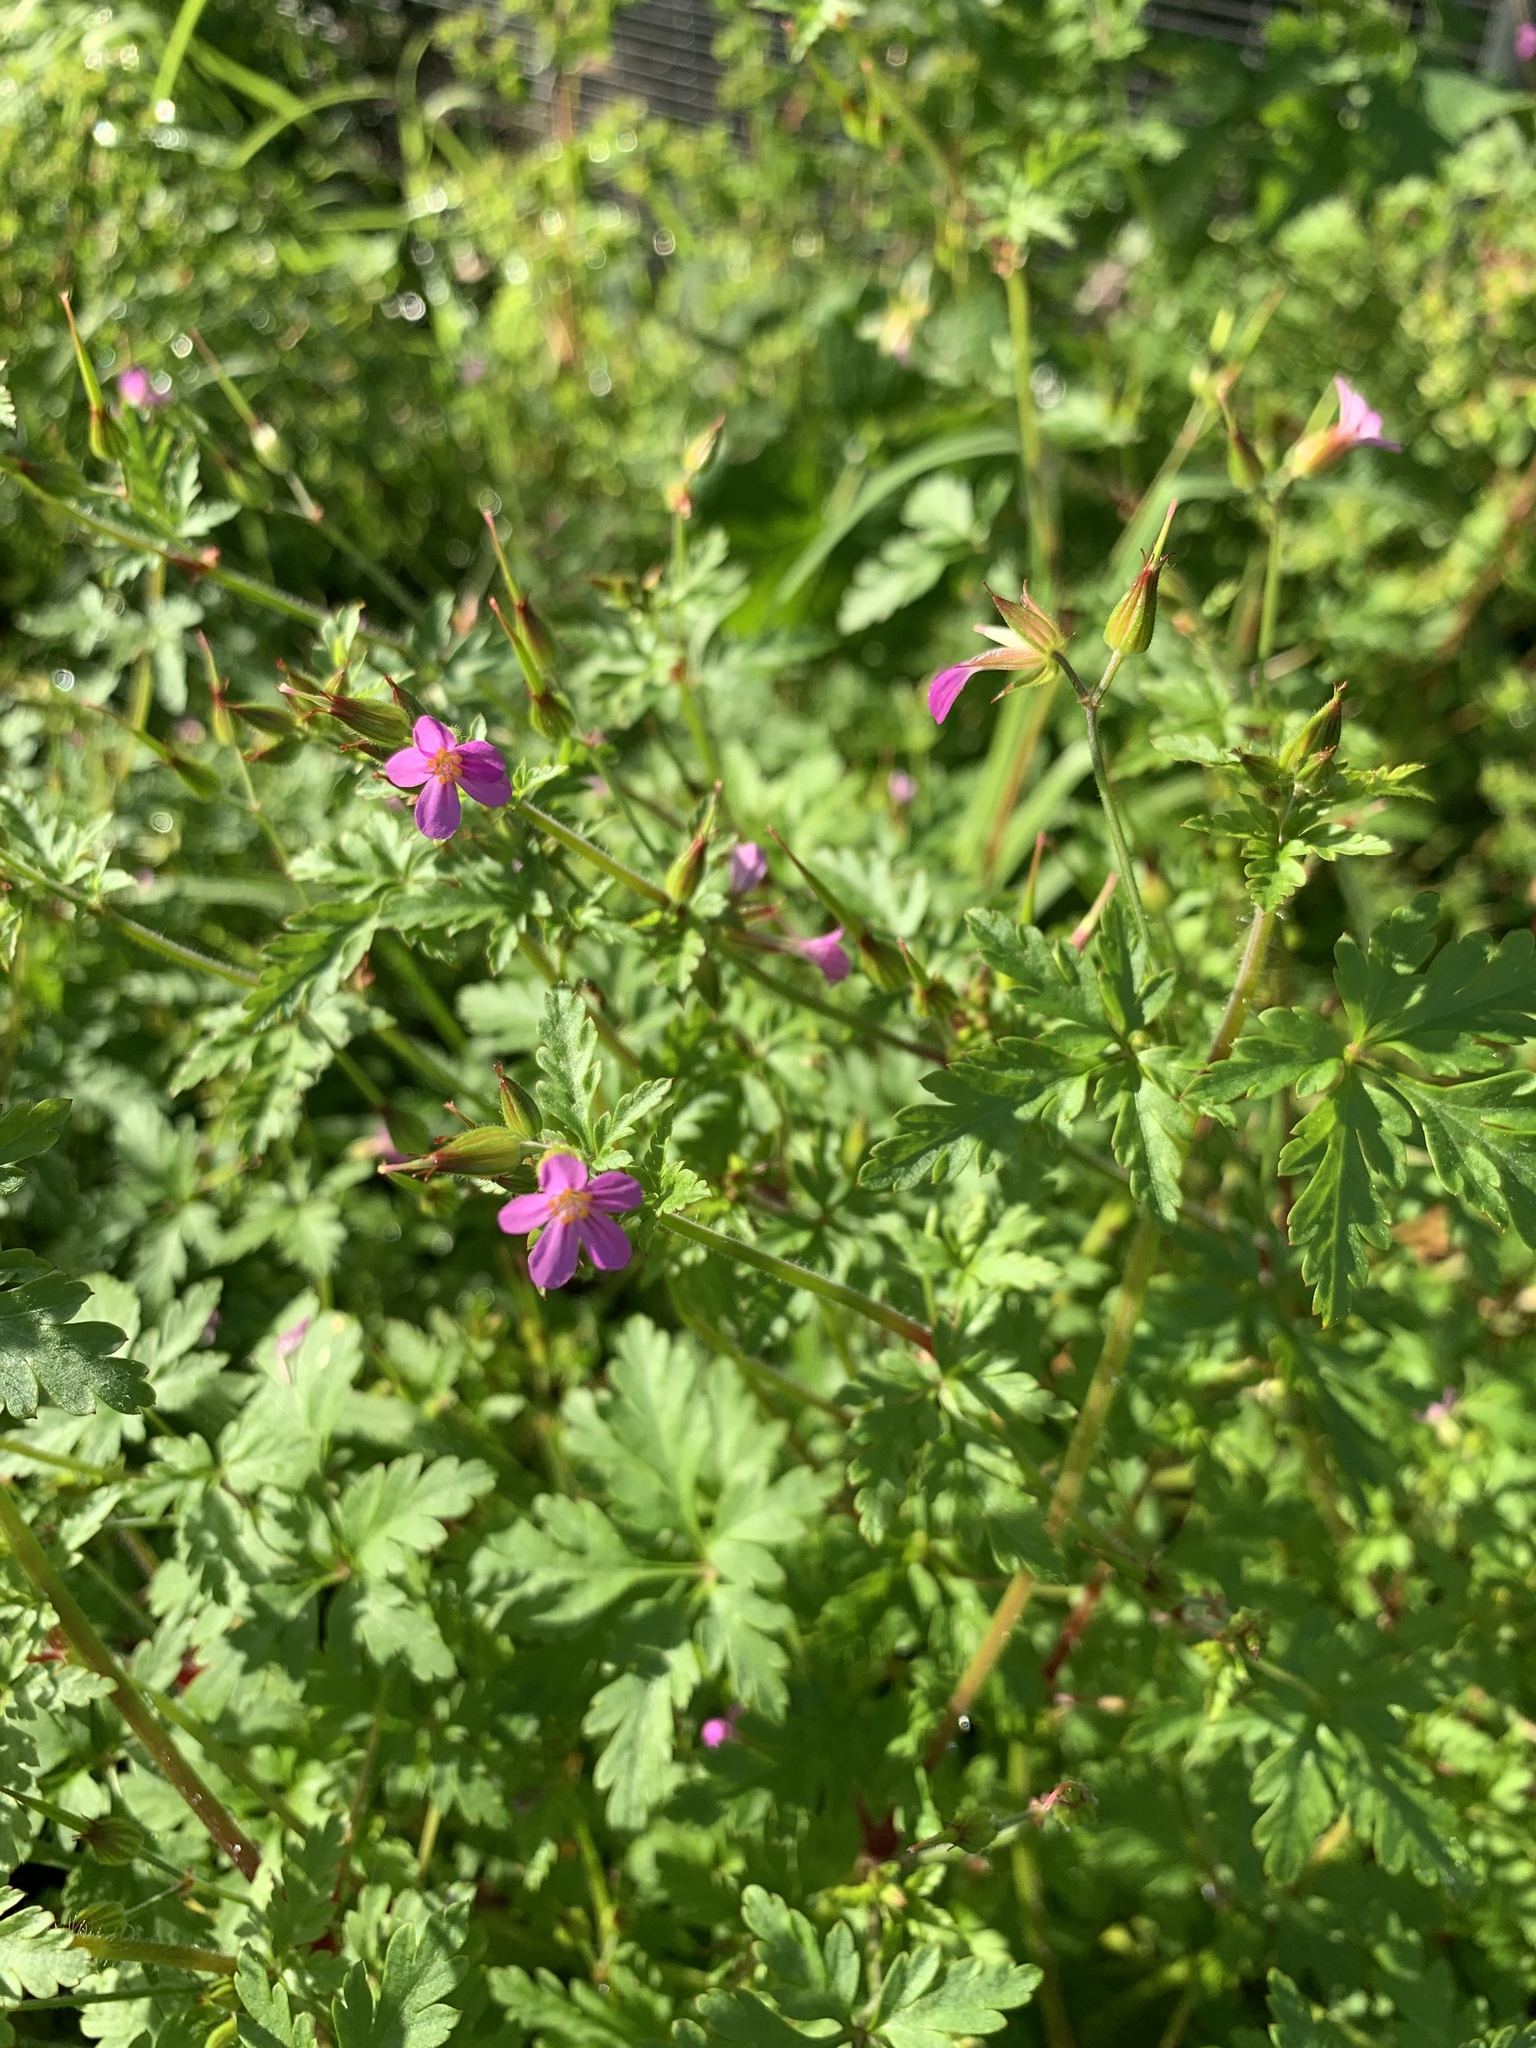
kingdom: Plantae
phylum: Tracheophyta
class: Magnoliopsida
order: Geraniales
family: Geraniaceae
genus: Geranium
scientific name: Geranium purpureum
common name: Little-robin
